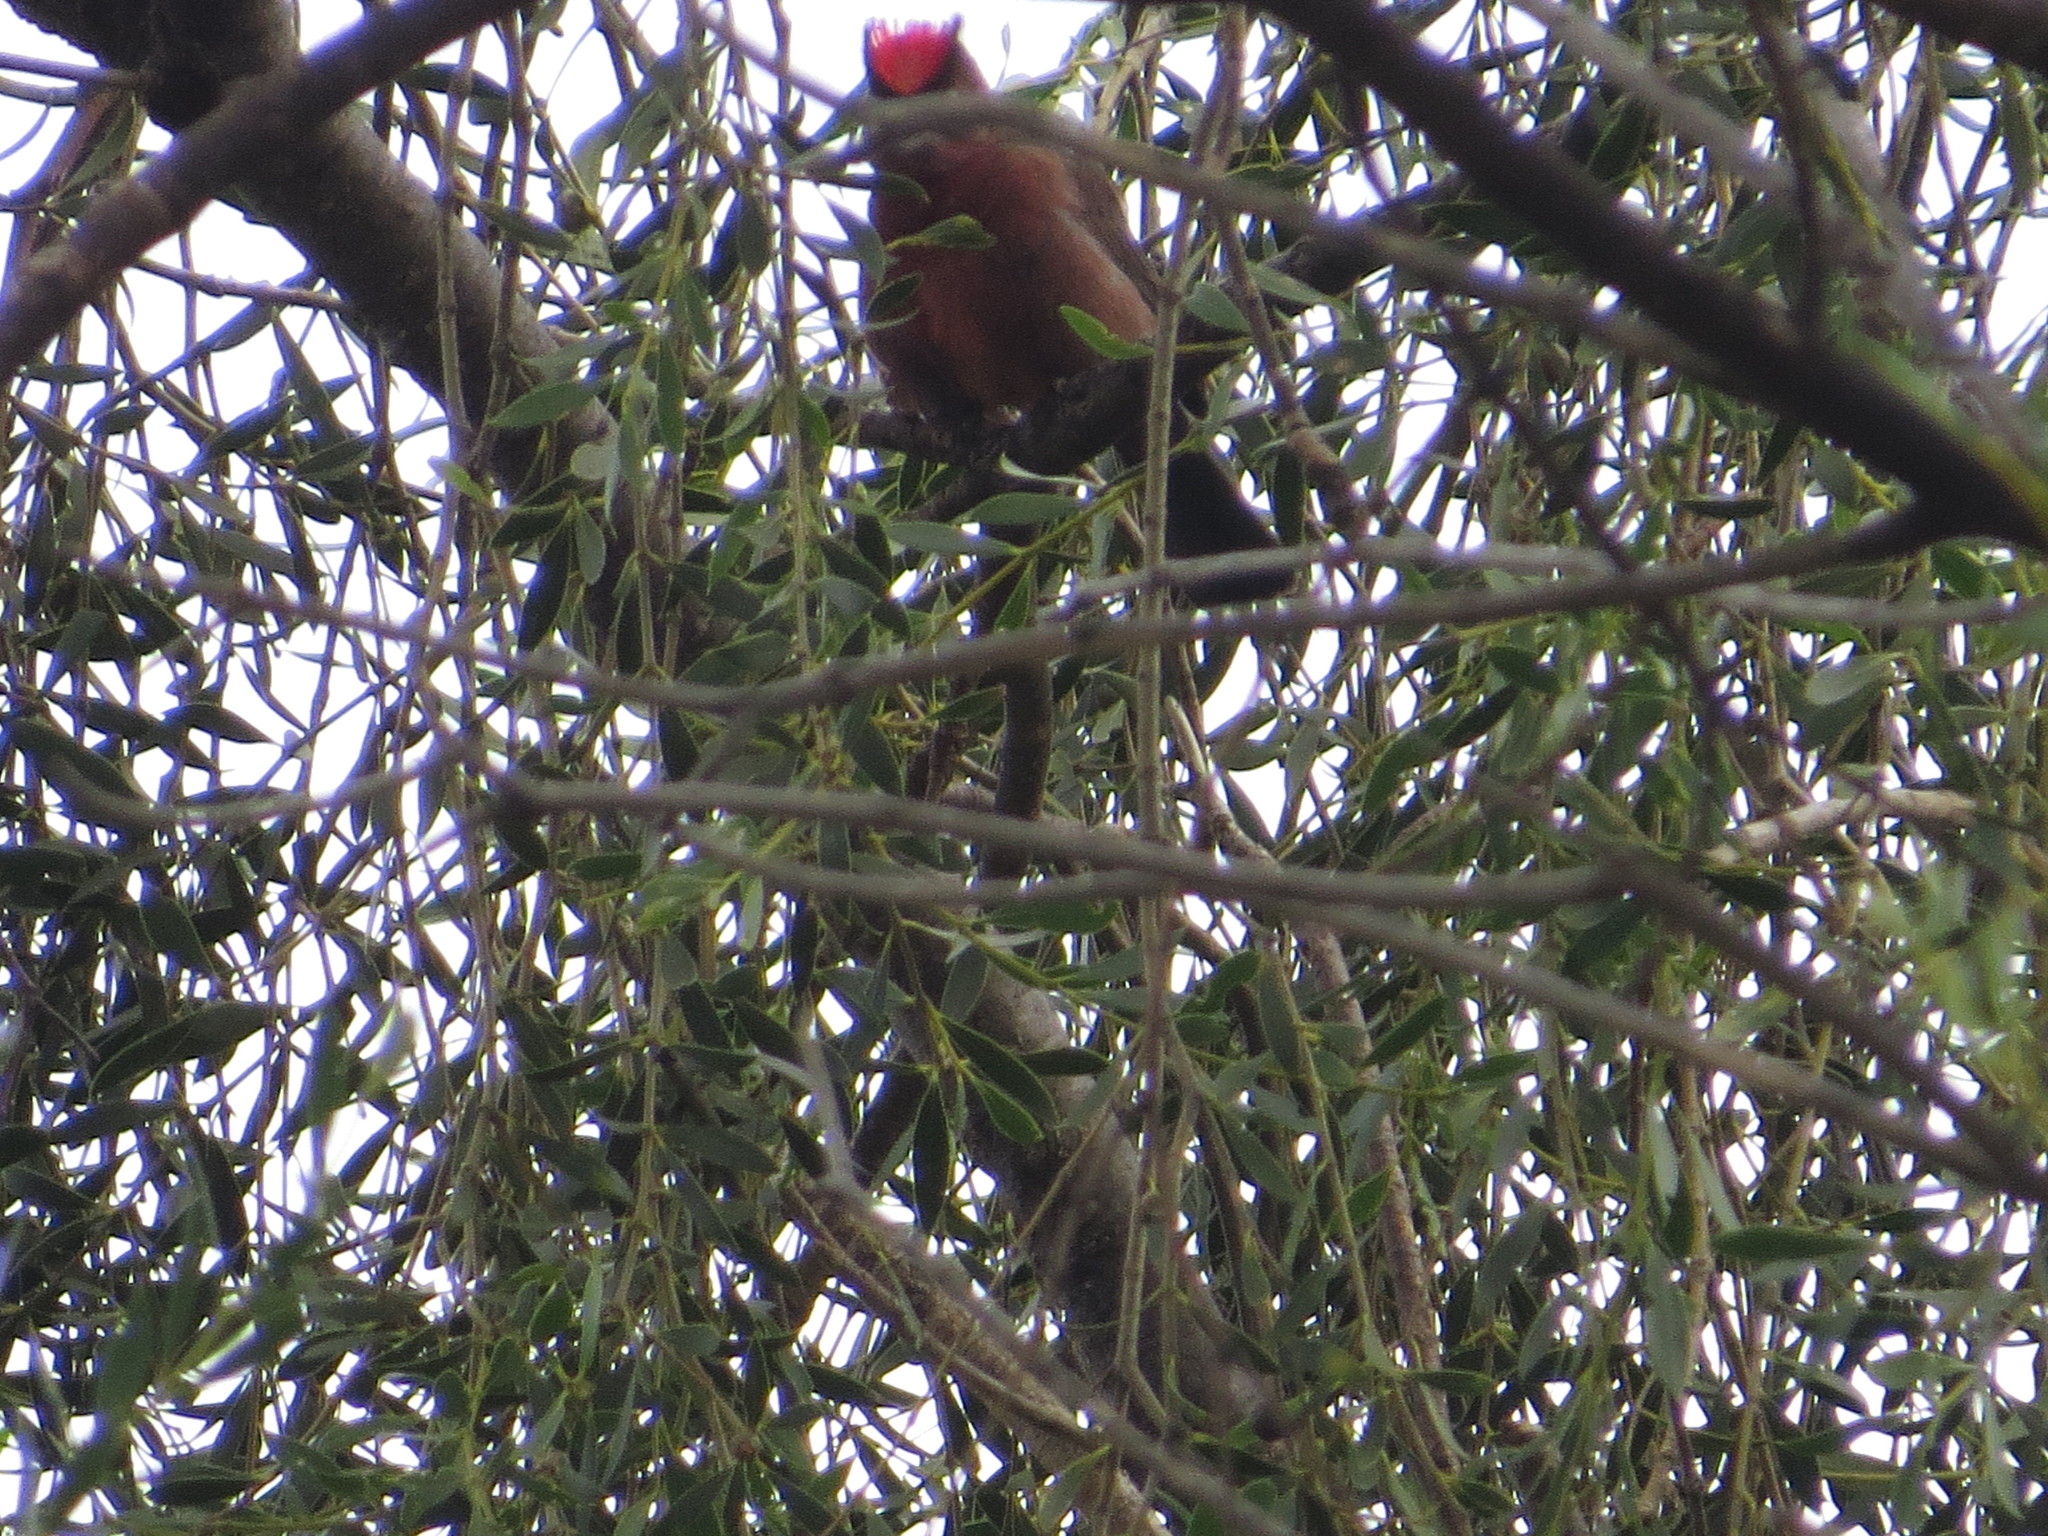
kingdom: Animalia
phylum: Chordata
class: Aves
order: Passeriformes
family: Thraupidae
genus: Coryphospingus
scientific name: Coryphospingus cucullatus
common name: Red pileated finch
